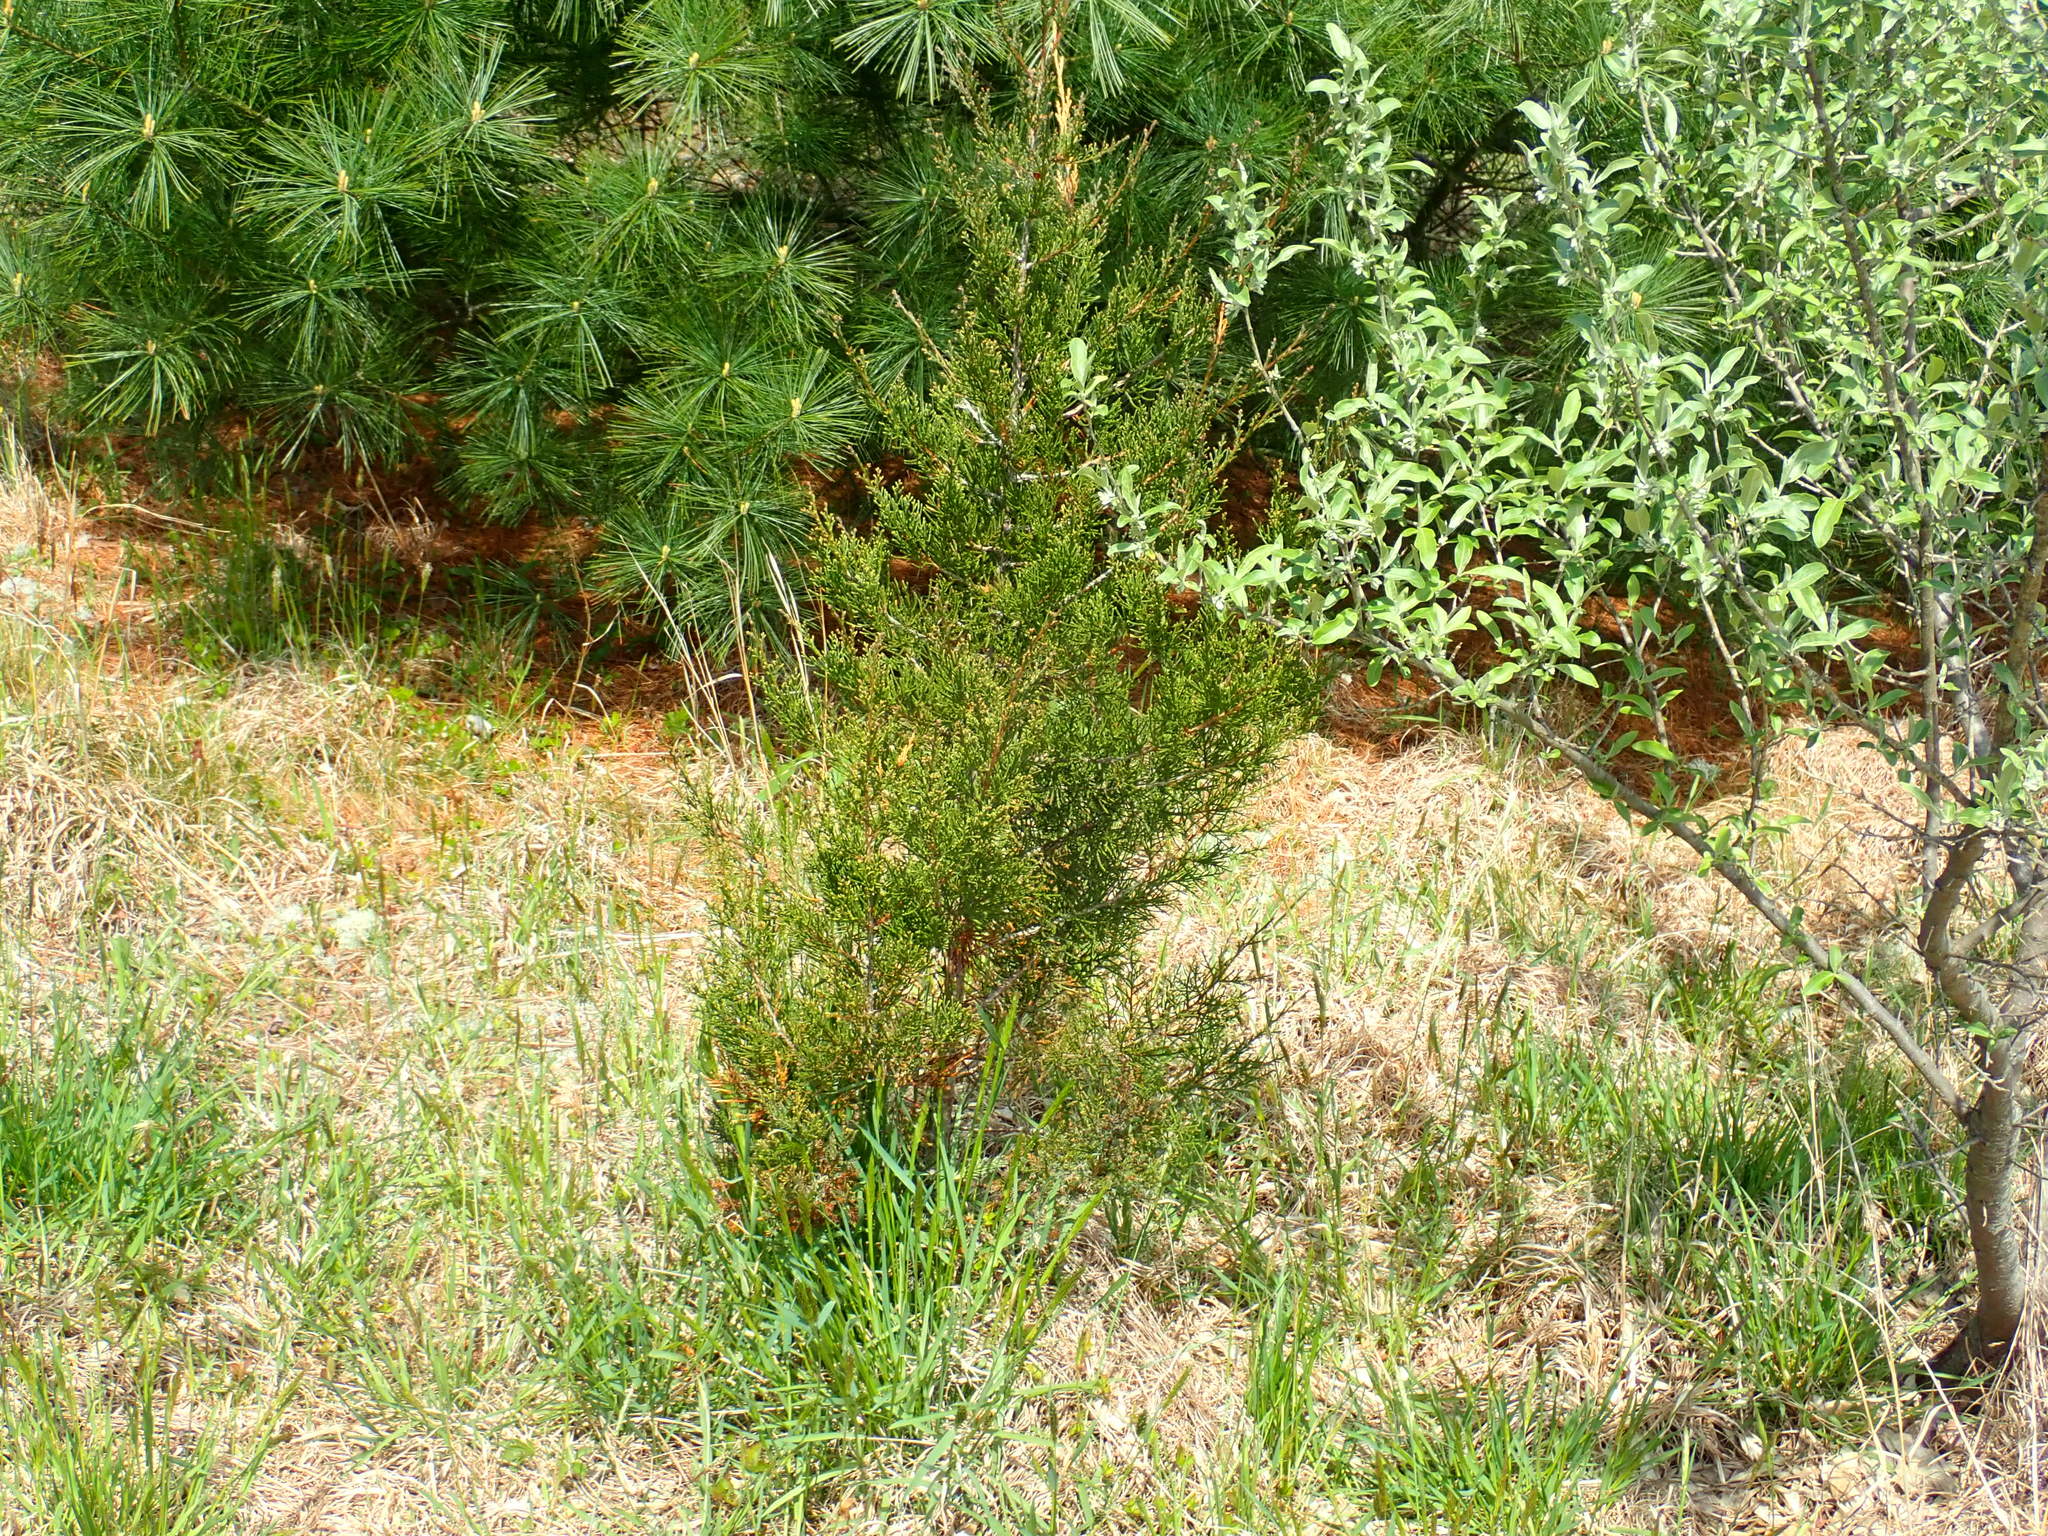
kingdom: Plantae
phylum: Tracheophyta
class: Pinopsida
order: Pinales
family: Cupressaceae
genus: Juniperus
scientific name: Juniperus virginiana
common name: Red juniper
